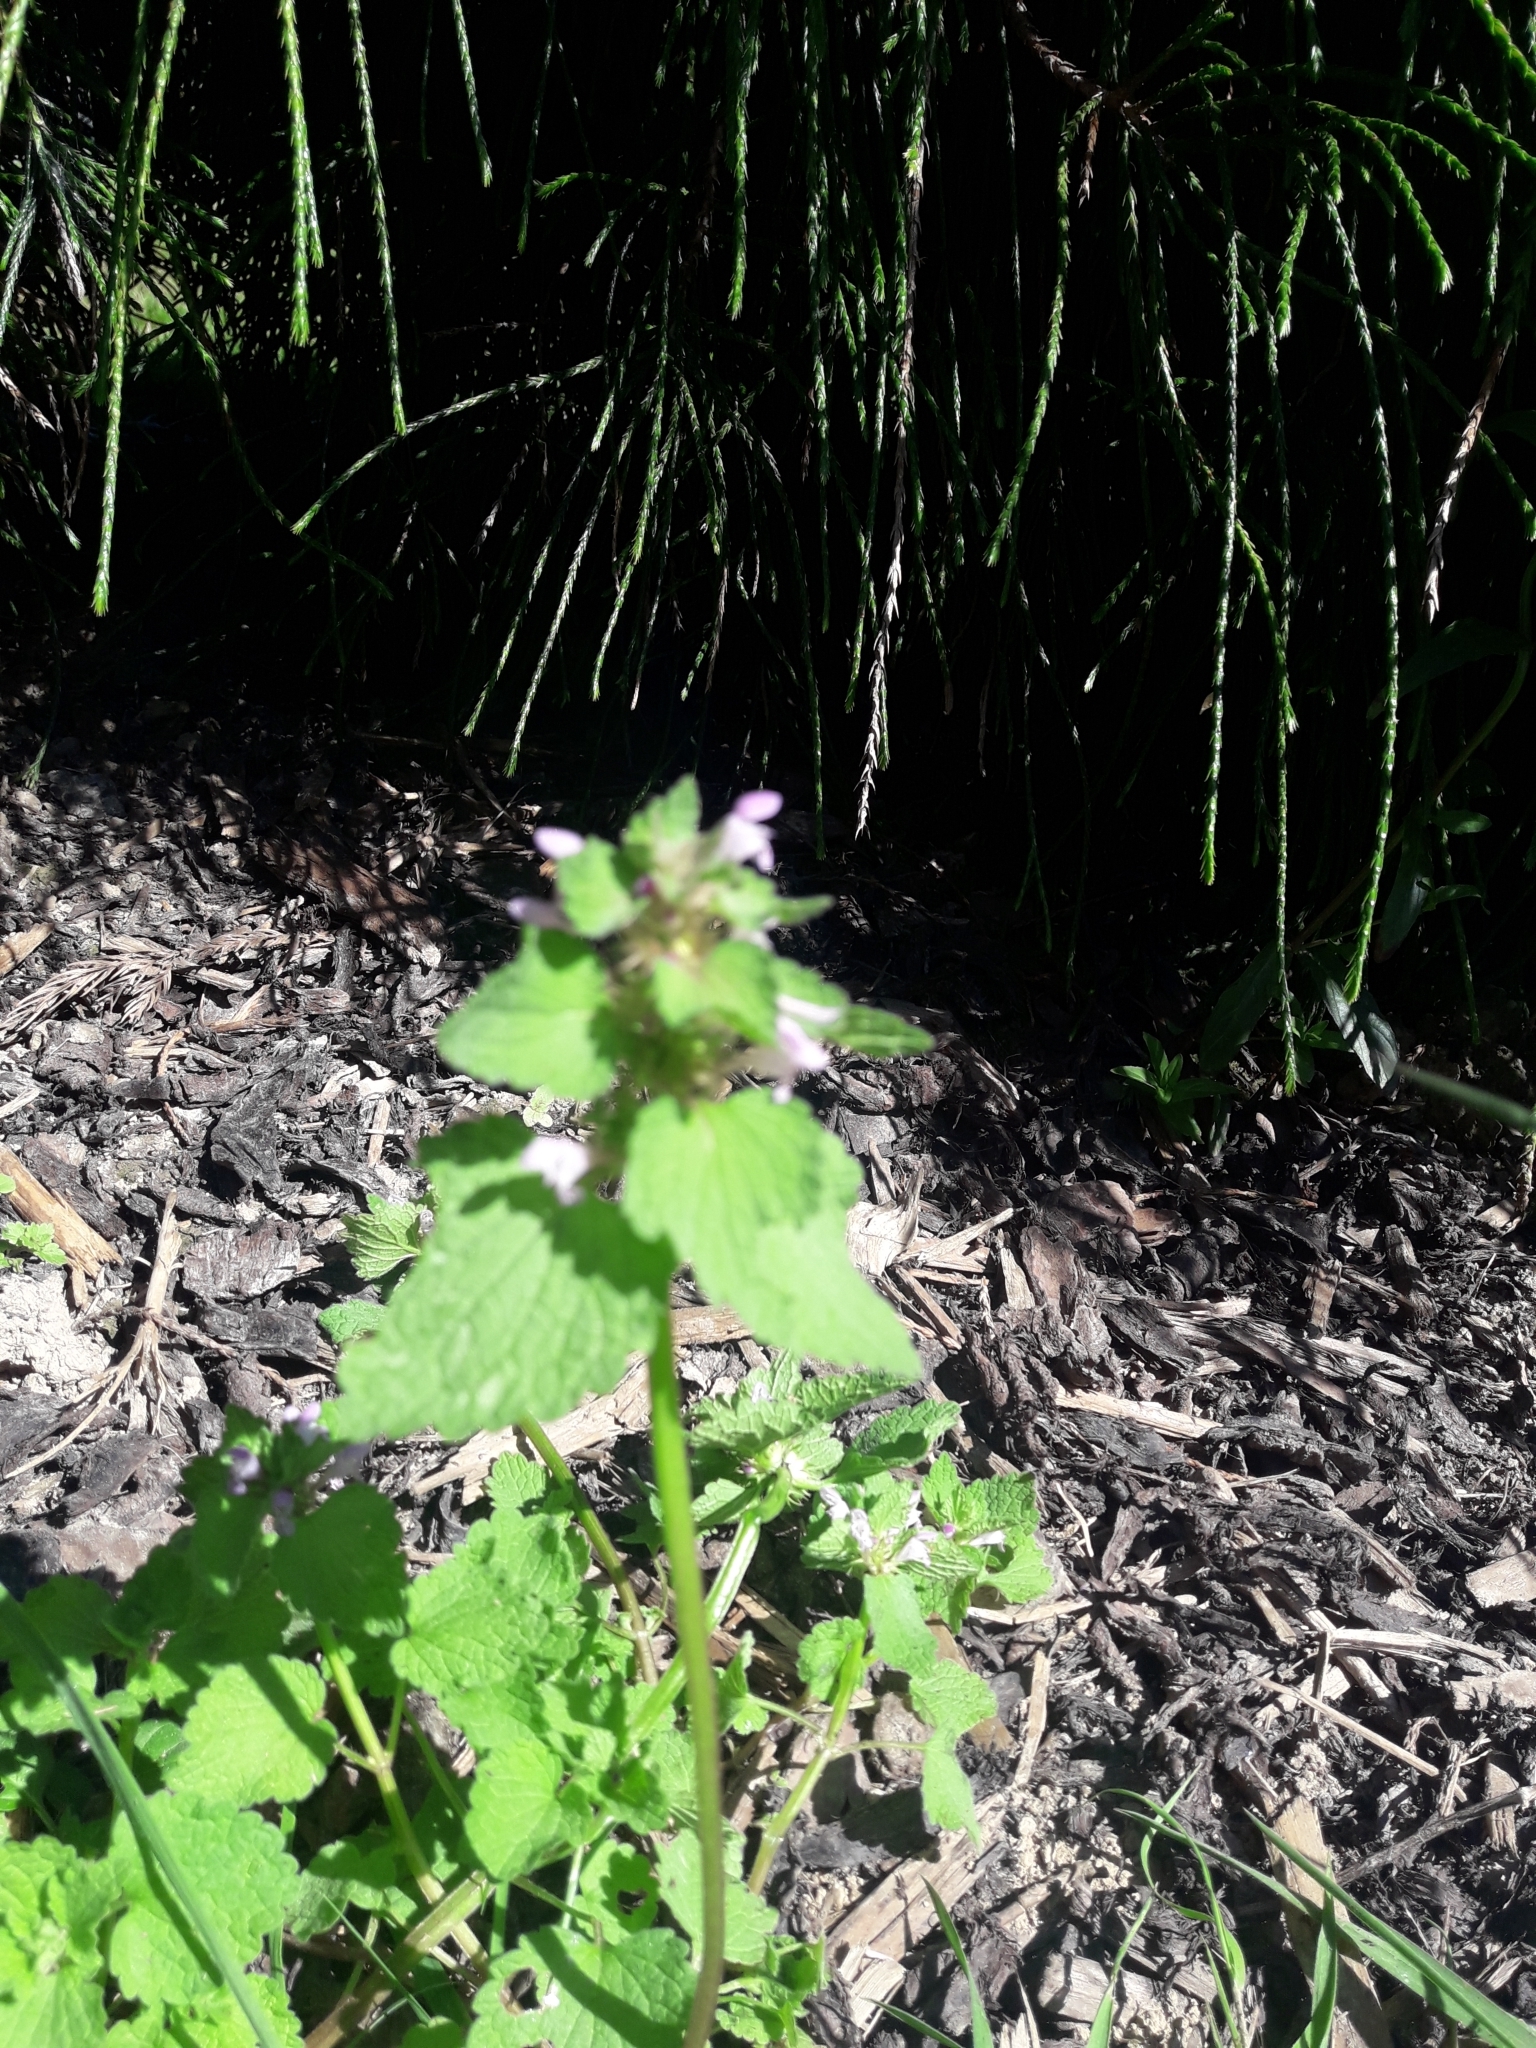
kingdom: Plantae
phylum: Tracheophyta
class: Magnoliopsida
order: Lamiales
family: Lamiaceae
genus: Lamium
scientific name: Lamium purpureum
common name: Red dead-nettle
